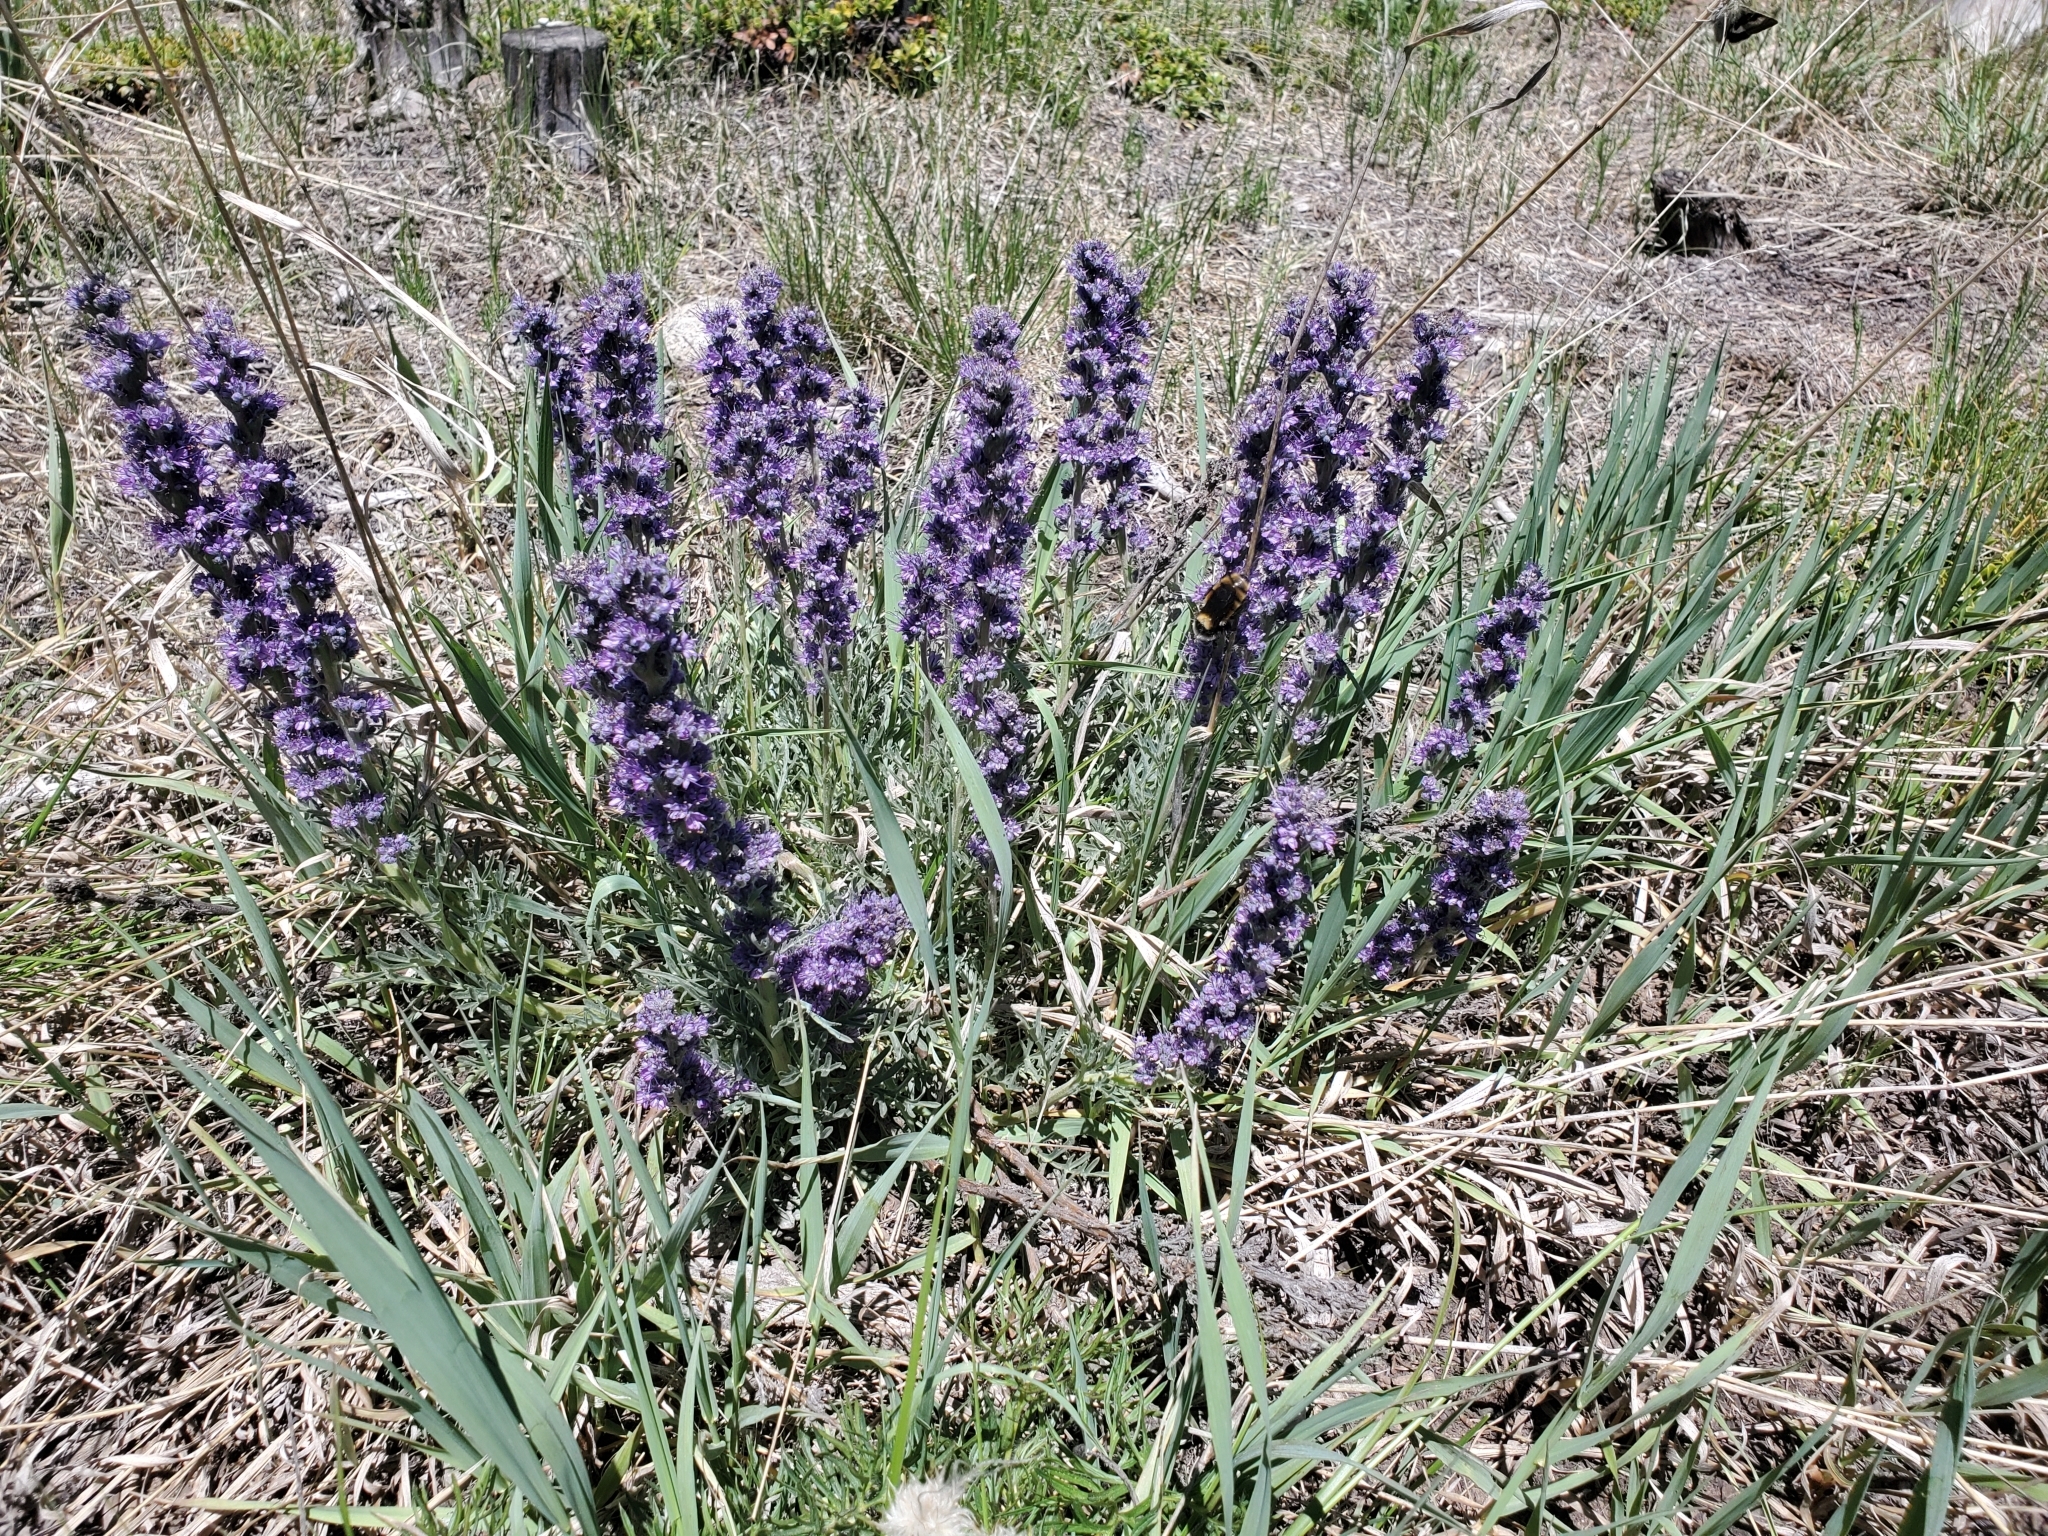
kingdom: Plantae
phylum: Tracheophyta
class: Magnoliopsida
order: Boraginales
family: Hydrophyllaceae
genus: Phacelia
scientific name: Phacelia sericea
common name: Silky phacelia
